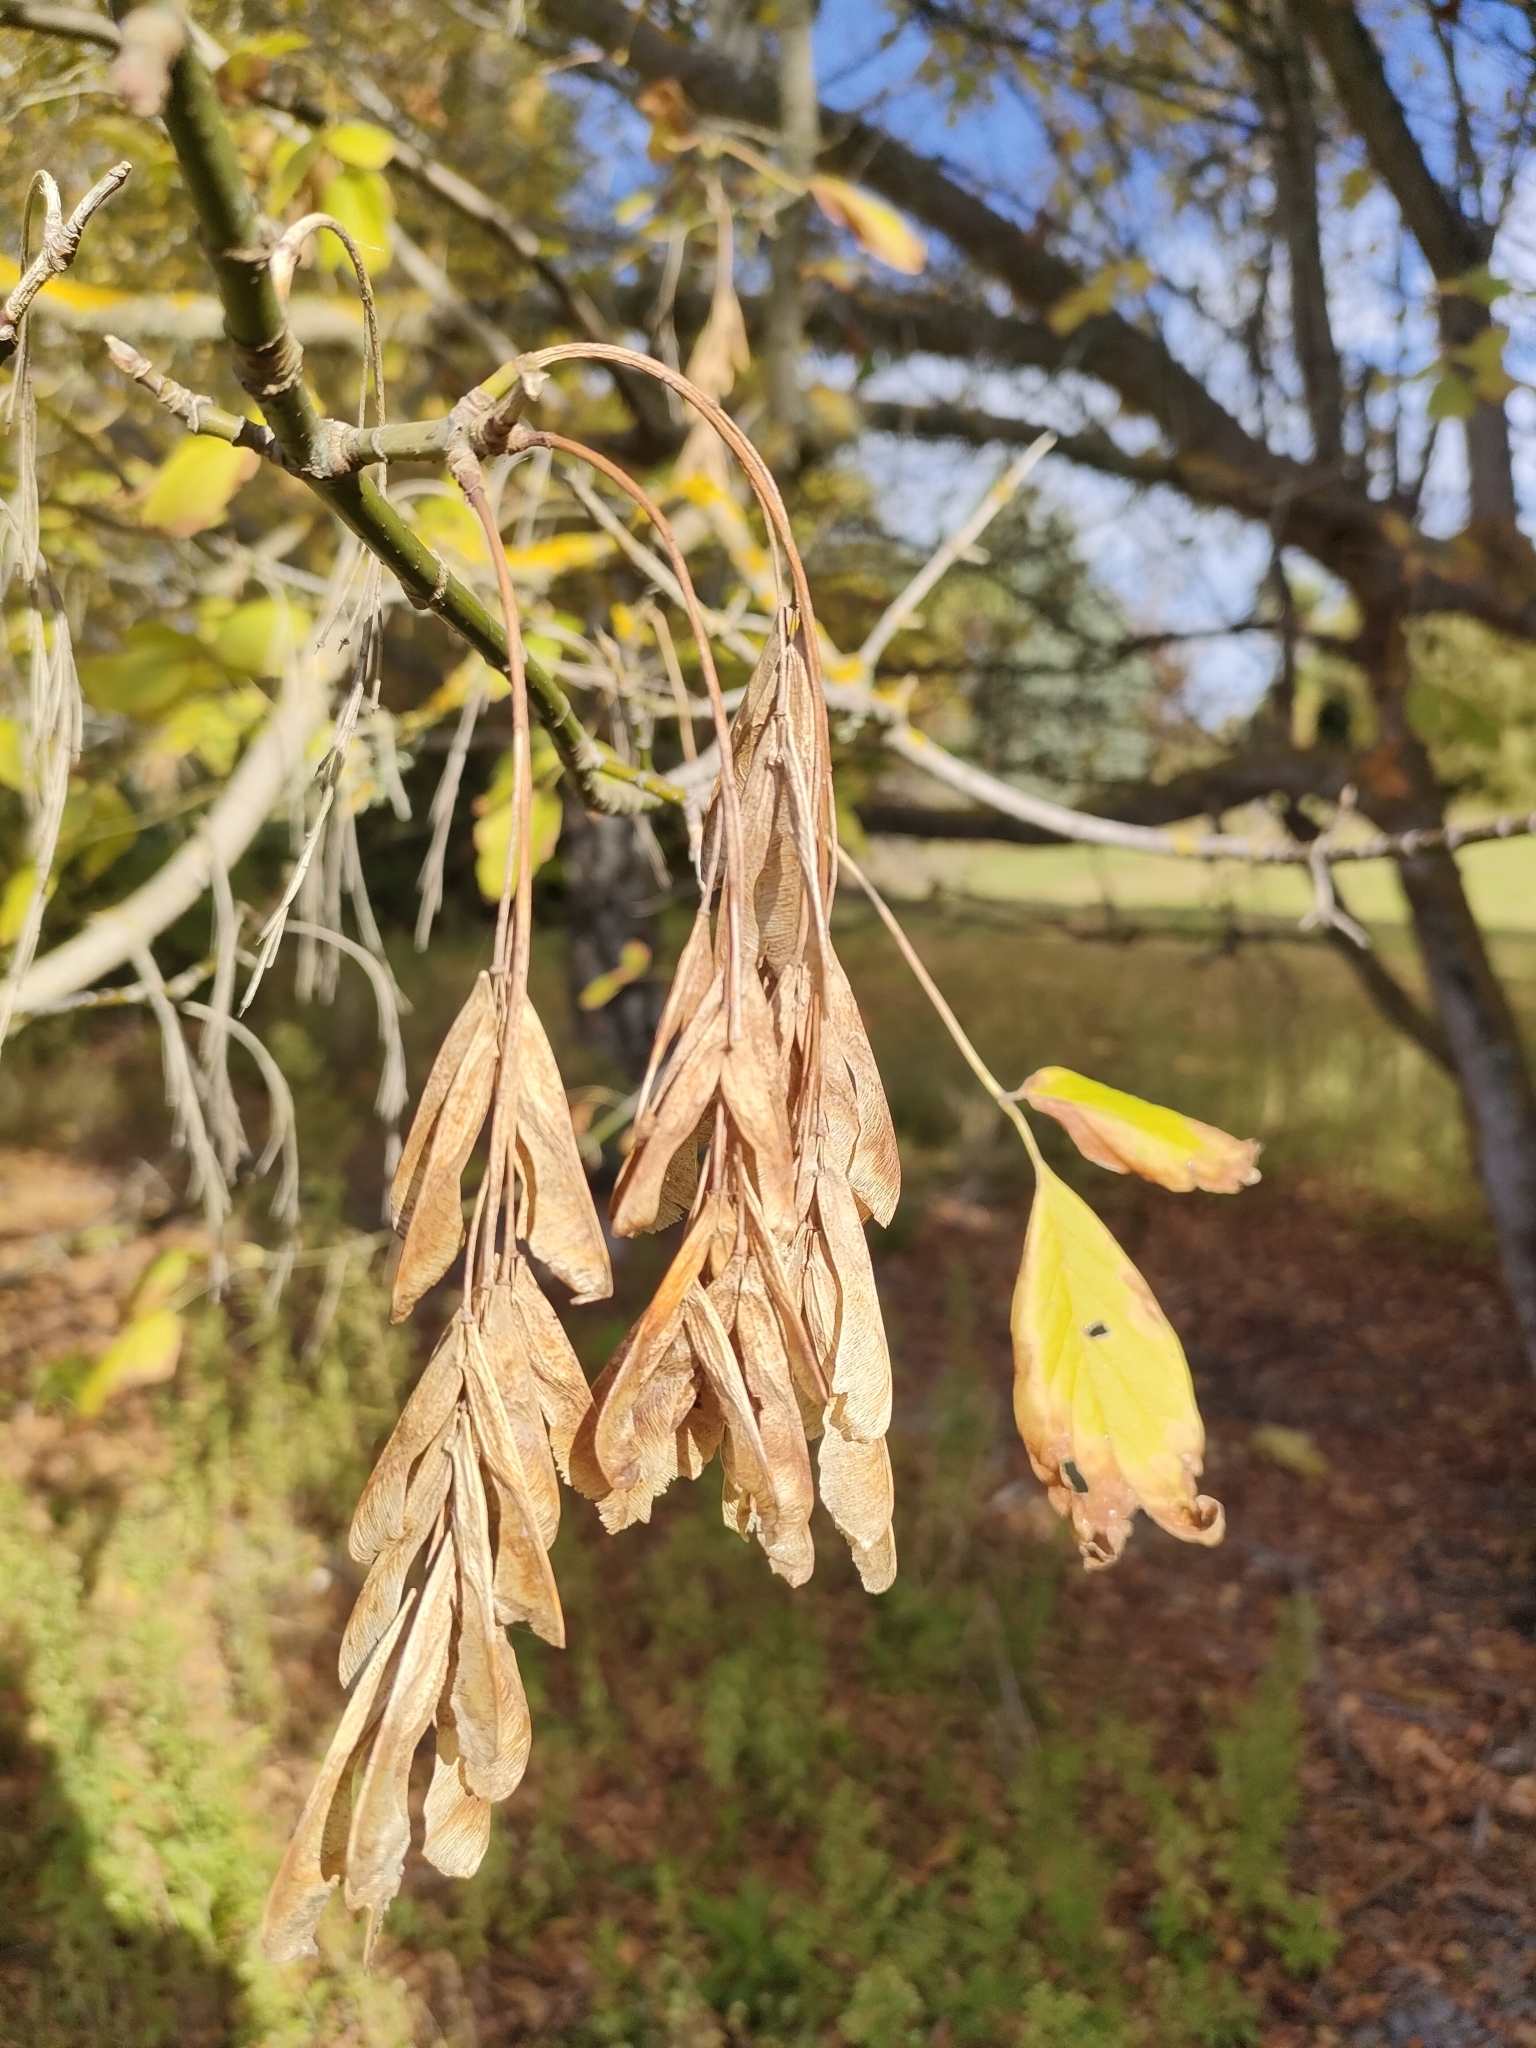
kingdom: Plantae
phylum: Tracheophyta
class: Magnoliopsida
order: Sapindales
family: Sapindaceae
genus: Acer
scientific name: Acer negundo
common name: Ashleaf maple
